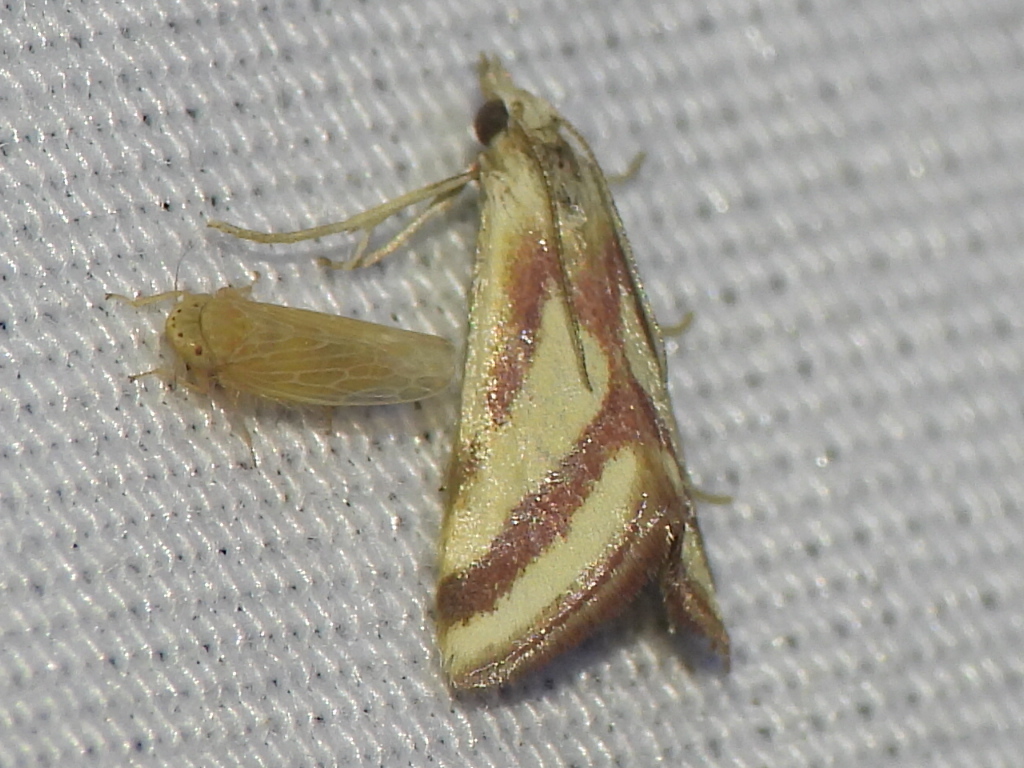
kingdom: Animalia
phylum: Arthropoda
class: Insecta
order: Lepidoptera
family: Crambidae
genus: Microtheoris
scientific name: Microtheoris vibicalis
